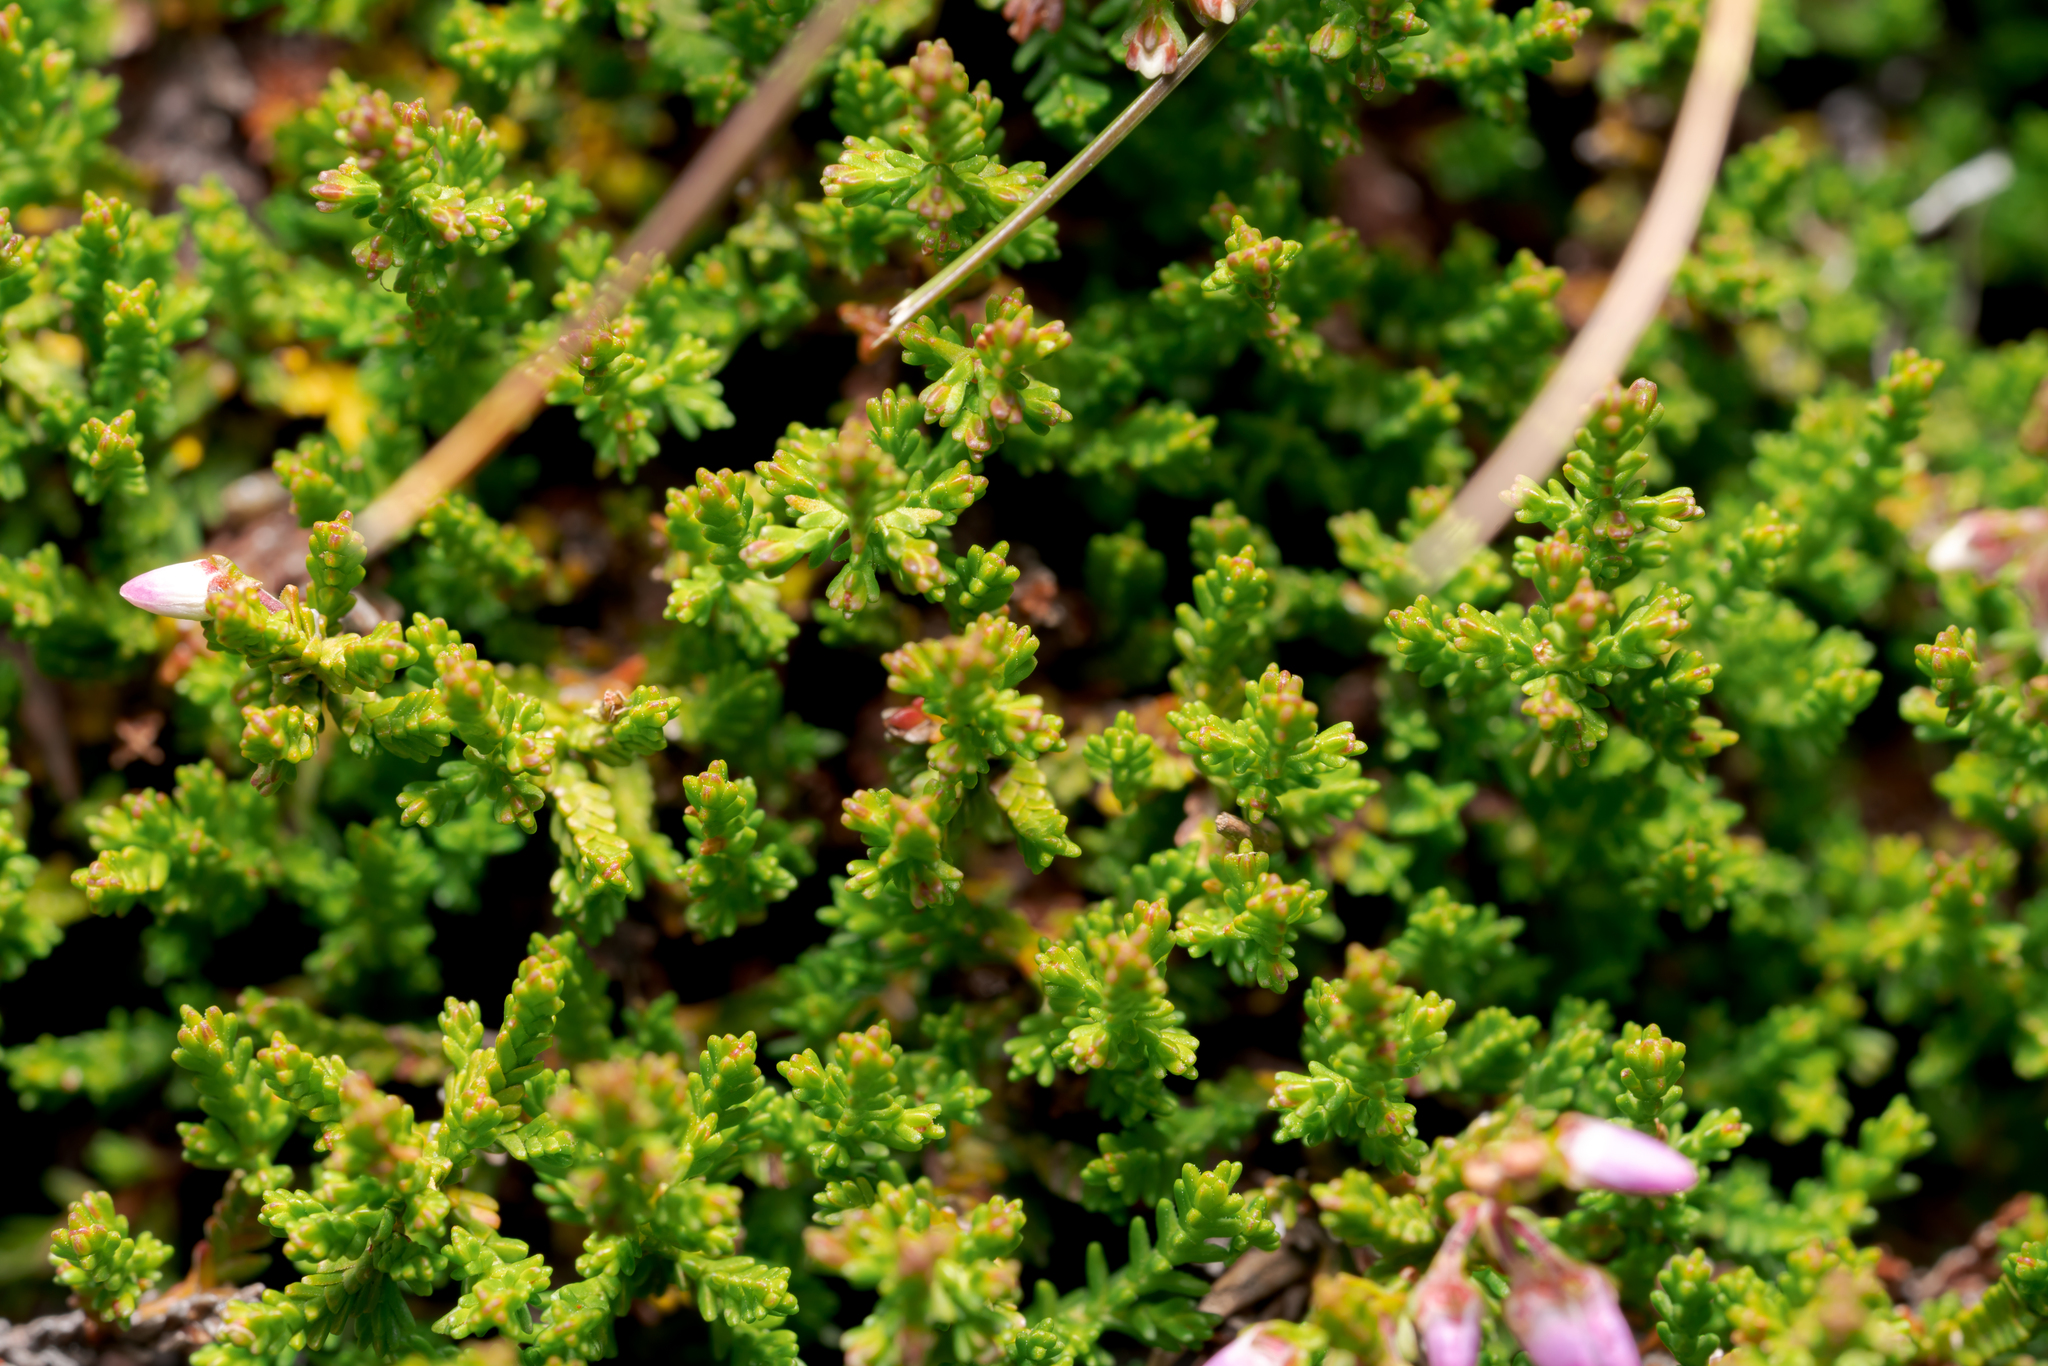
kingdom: Plantae
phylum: Tracheophyta
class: Magnoliopsida
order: Ericales
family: Ericaceae
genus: Calluna
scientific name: Calluna vulgaris
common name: Heather
